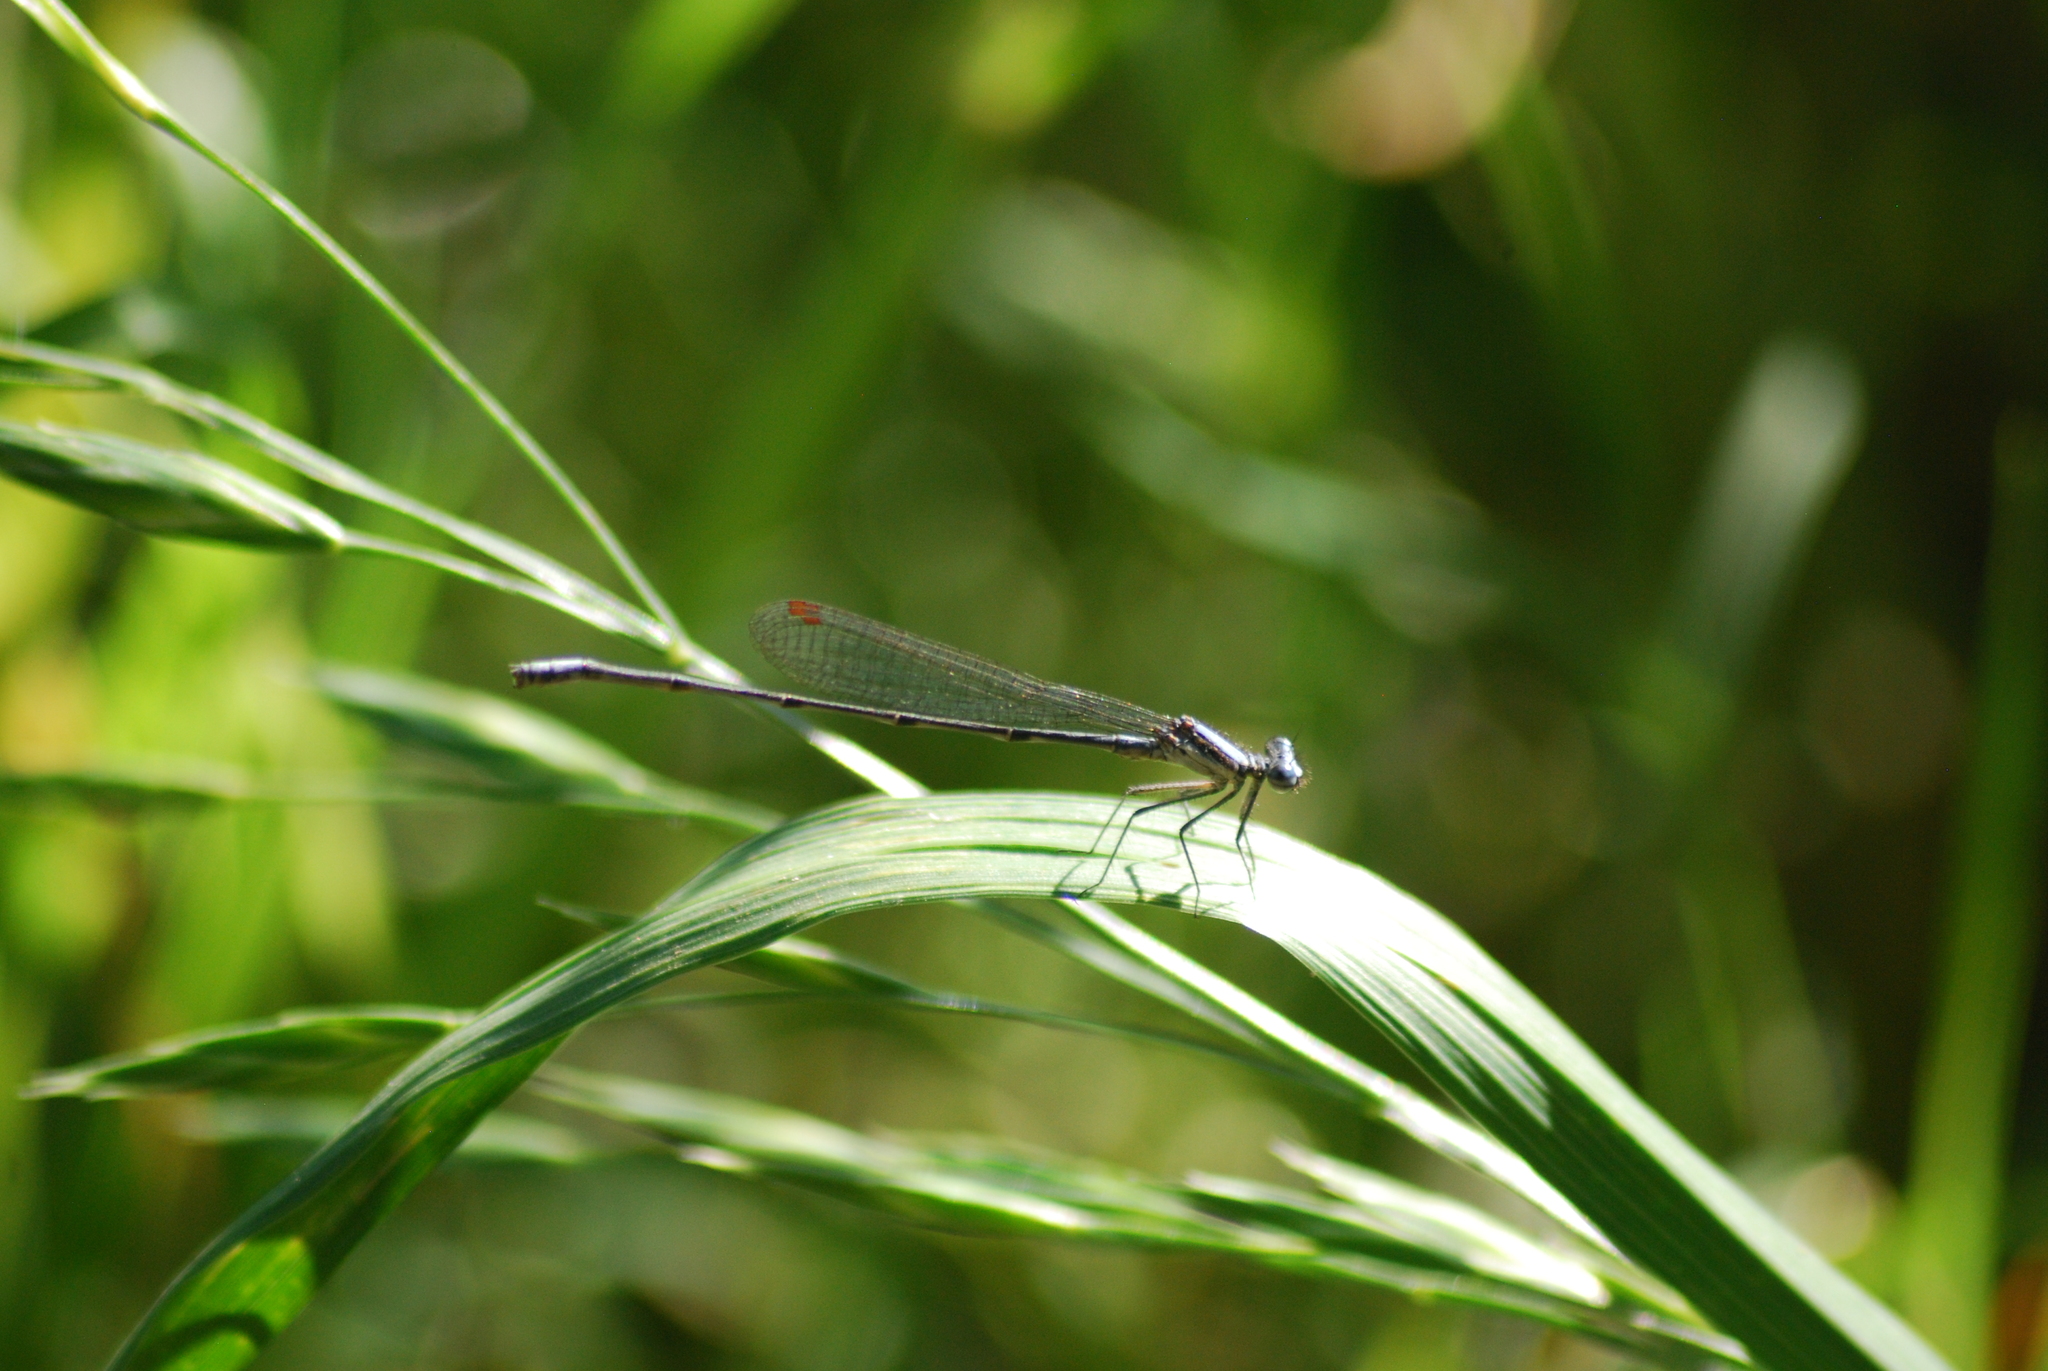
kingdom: Animalia
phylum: Arthropoda
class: Insecta
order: Odonata
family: Platycnemididae
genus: Elattoneura
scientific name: Elattoneura glauca
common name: Common threadtail
